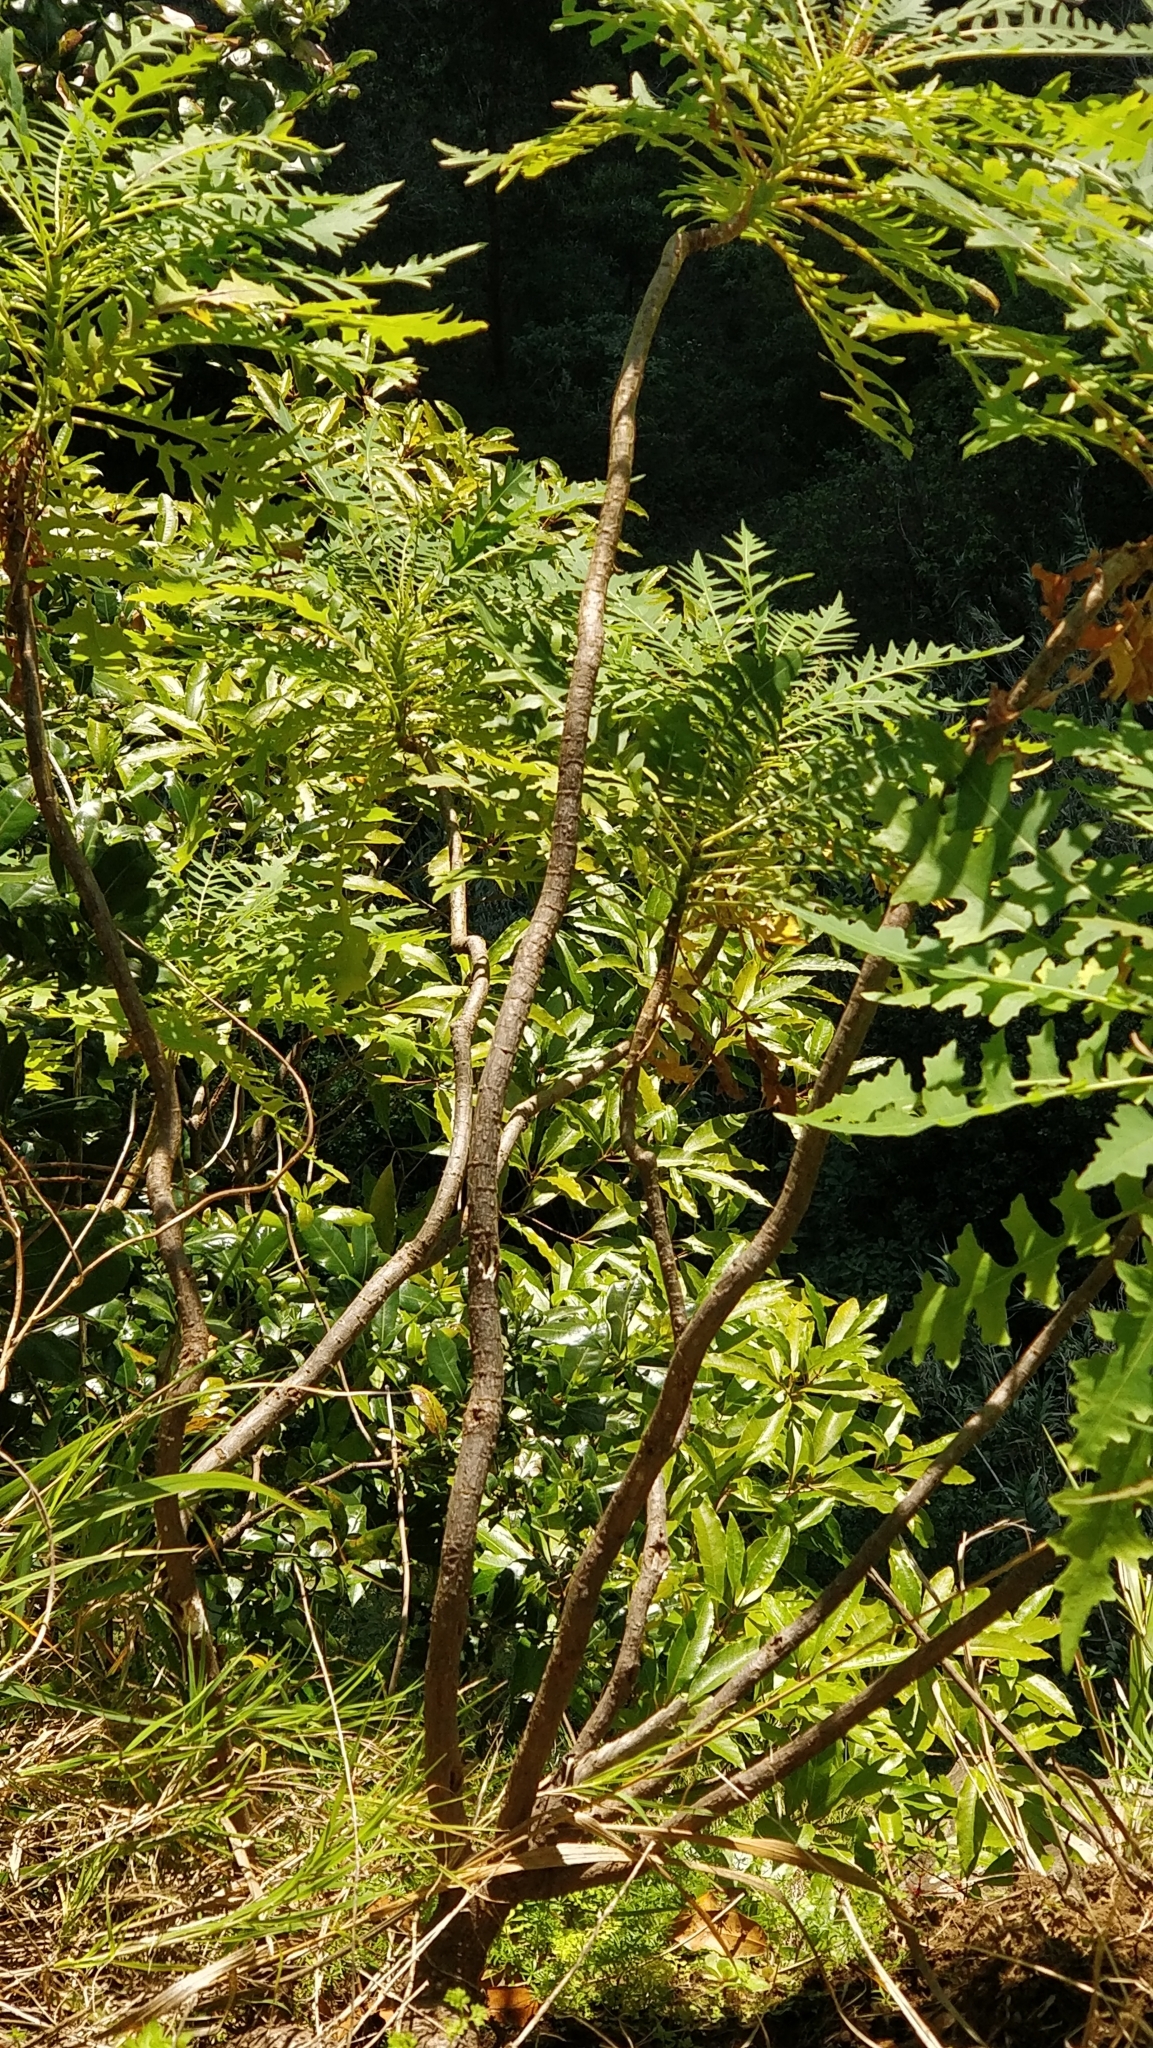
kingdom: Plantae
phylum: Tracheophyta
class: Magnoliopsida
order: Asterales
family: Asteraceae
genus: Sonchus
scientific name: Sonchus pinnatus
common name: Wing-leaved sow-thistle
